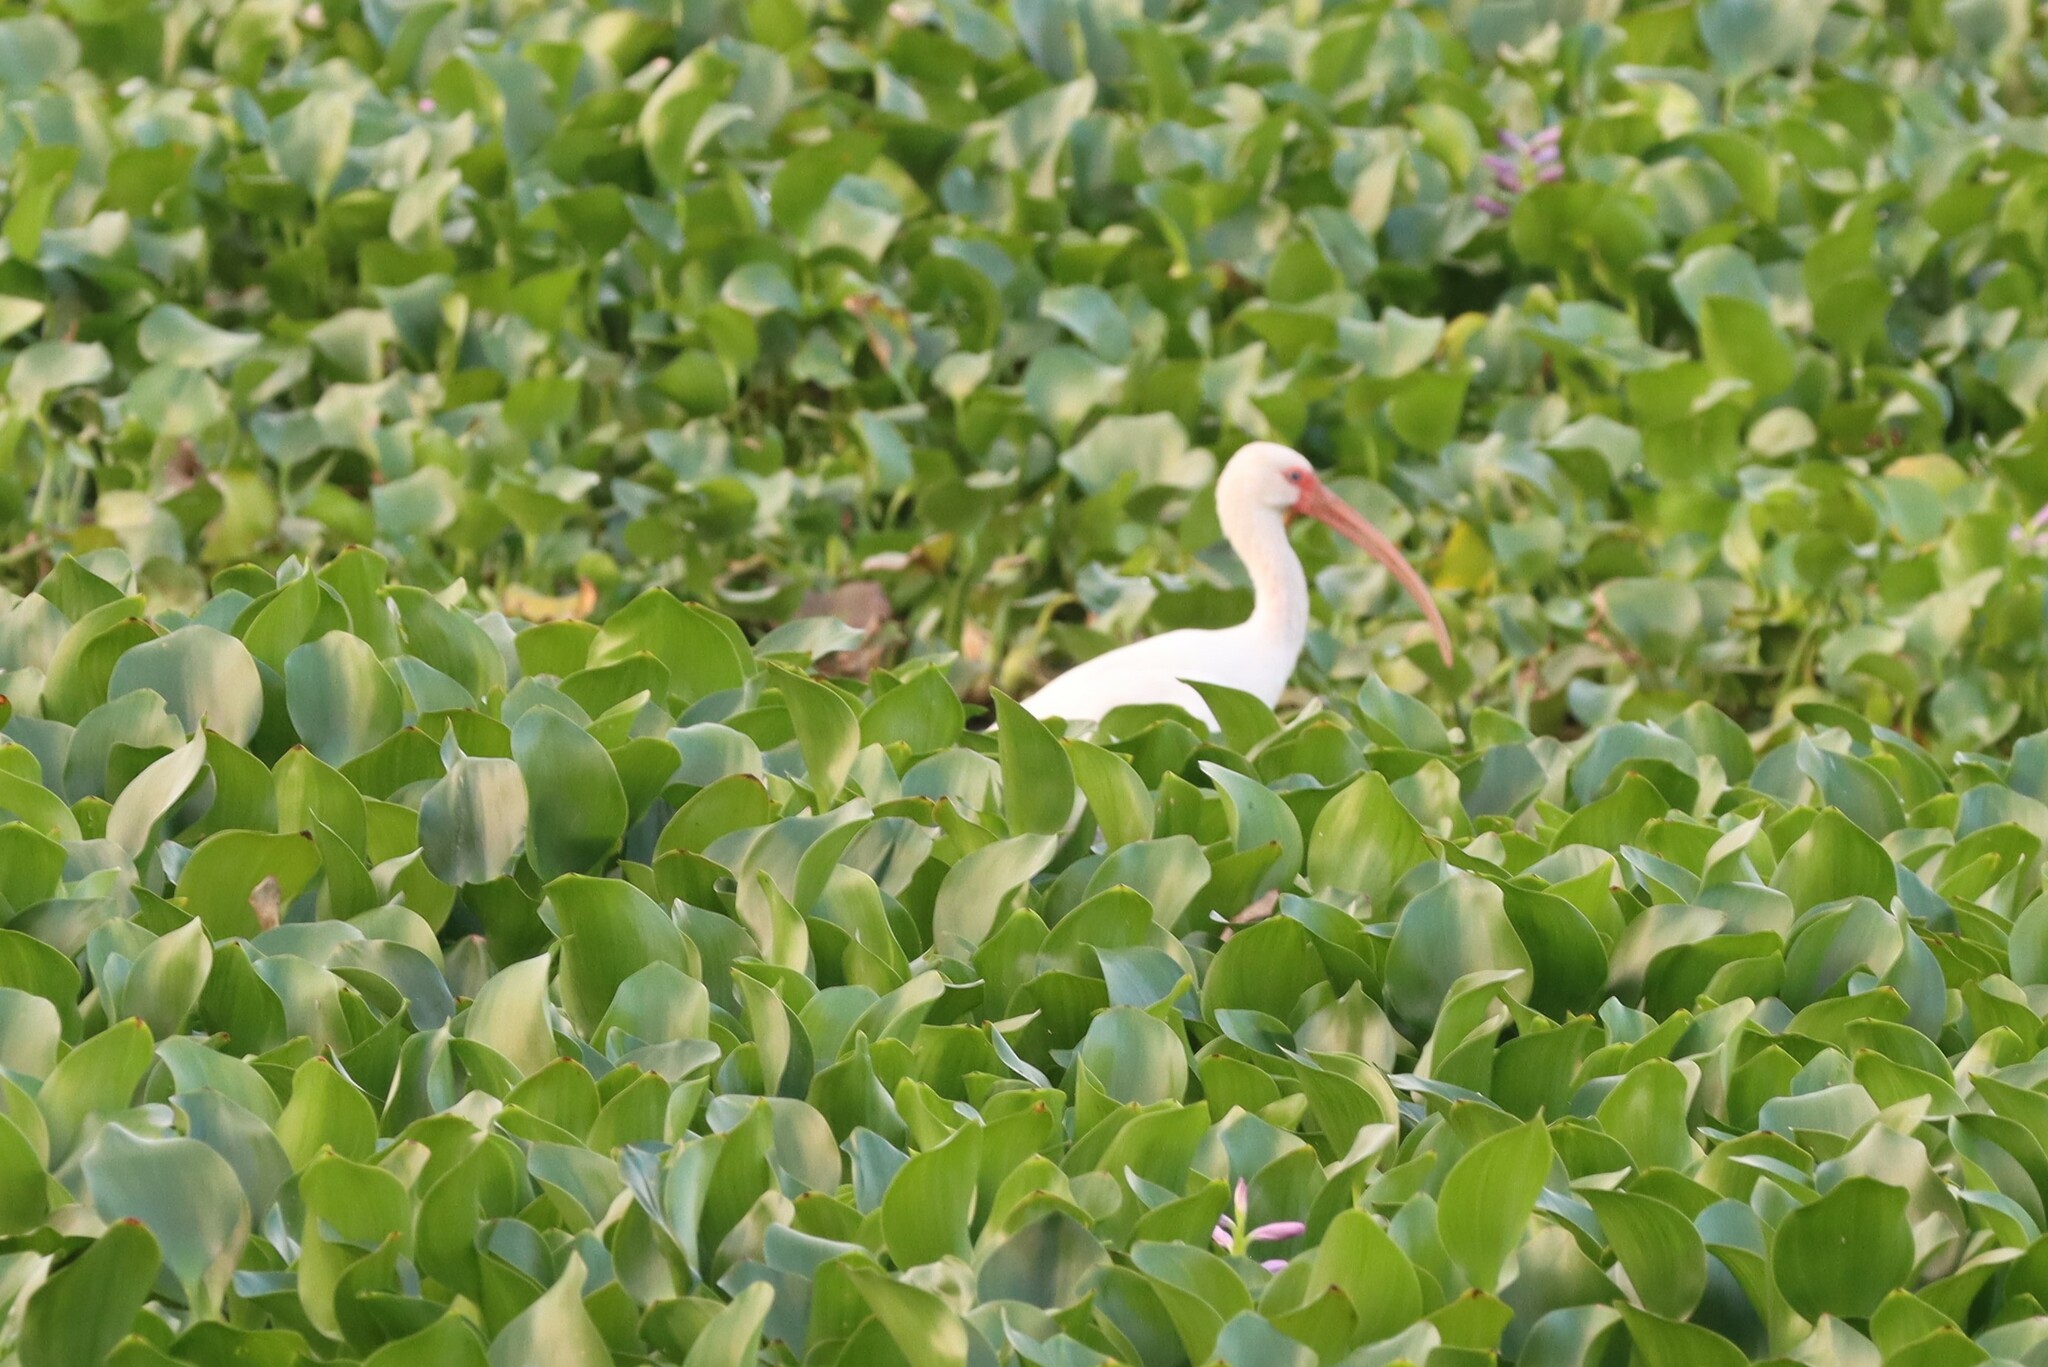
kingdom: Animalia
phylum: Chordata
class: Aves
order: Pelecaniformes
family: Threskiornithidae
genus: Eudocimus
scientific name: Eudocimus albus
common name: White ibis
